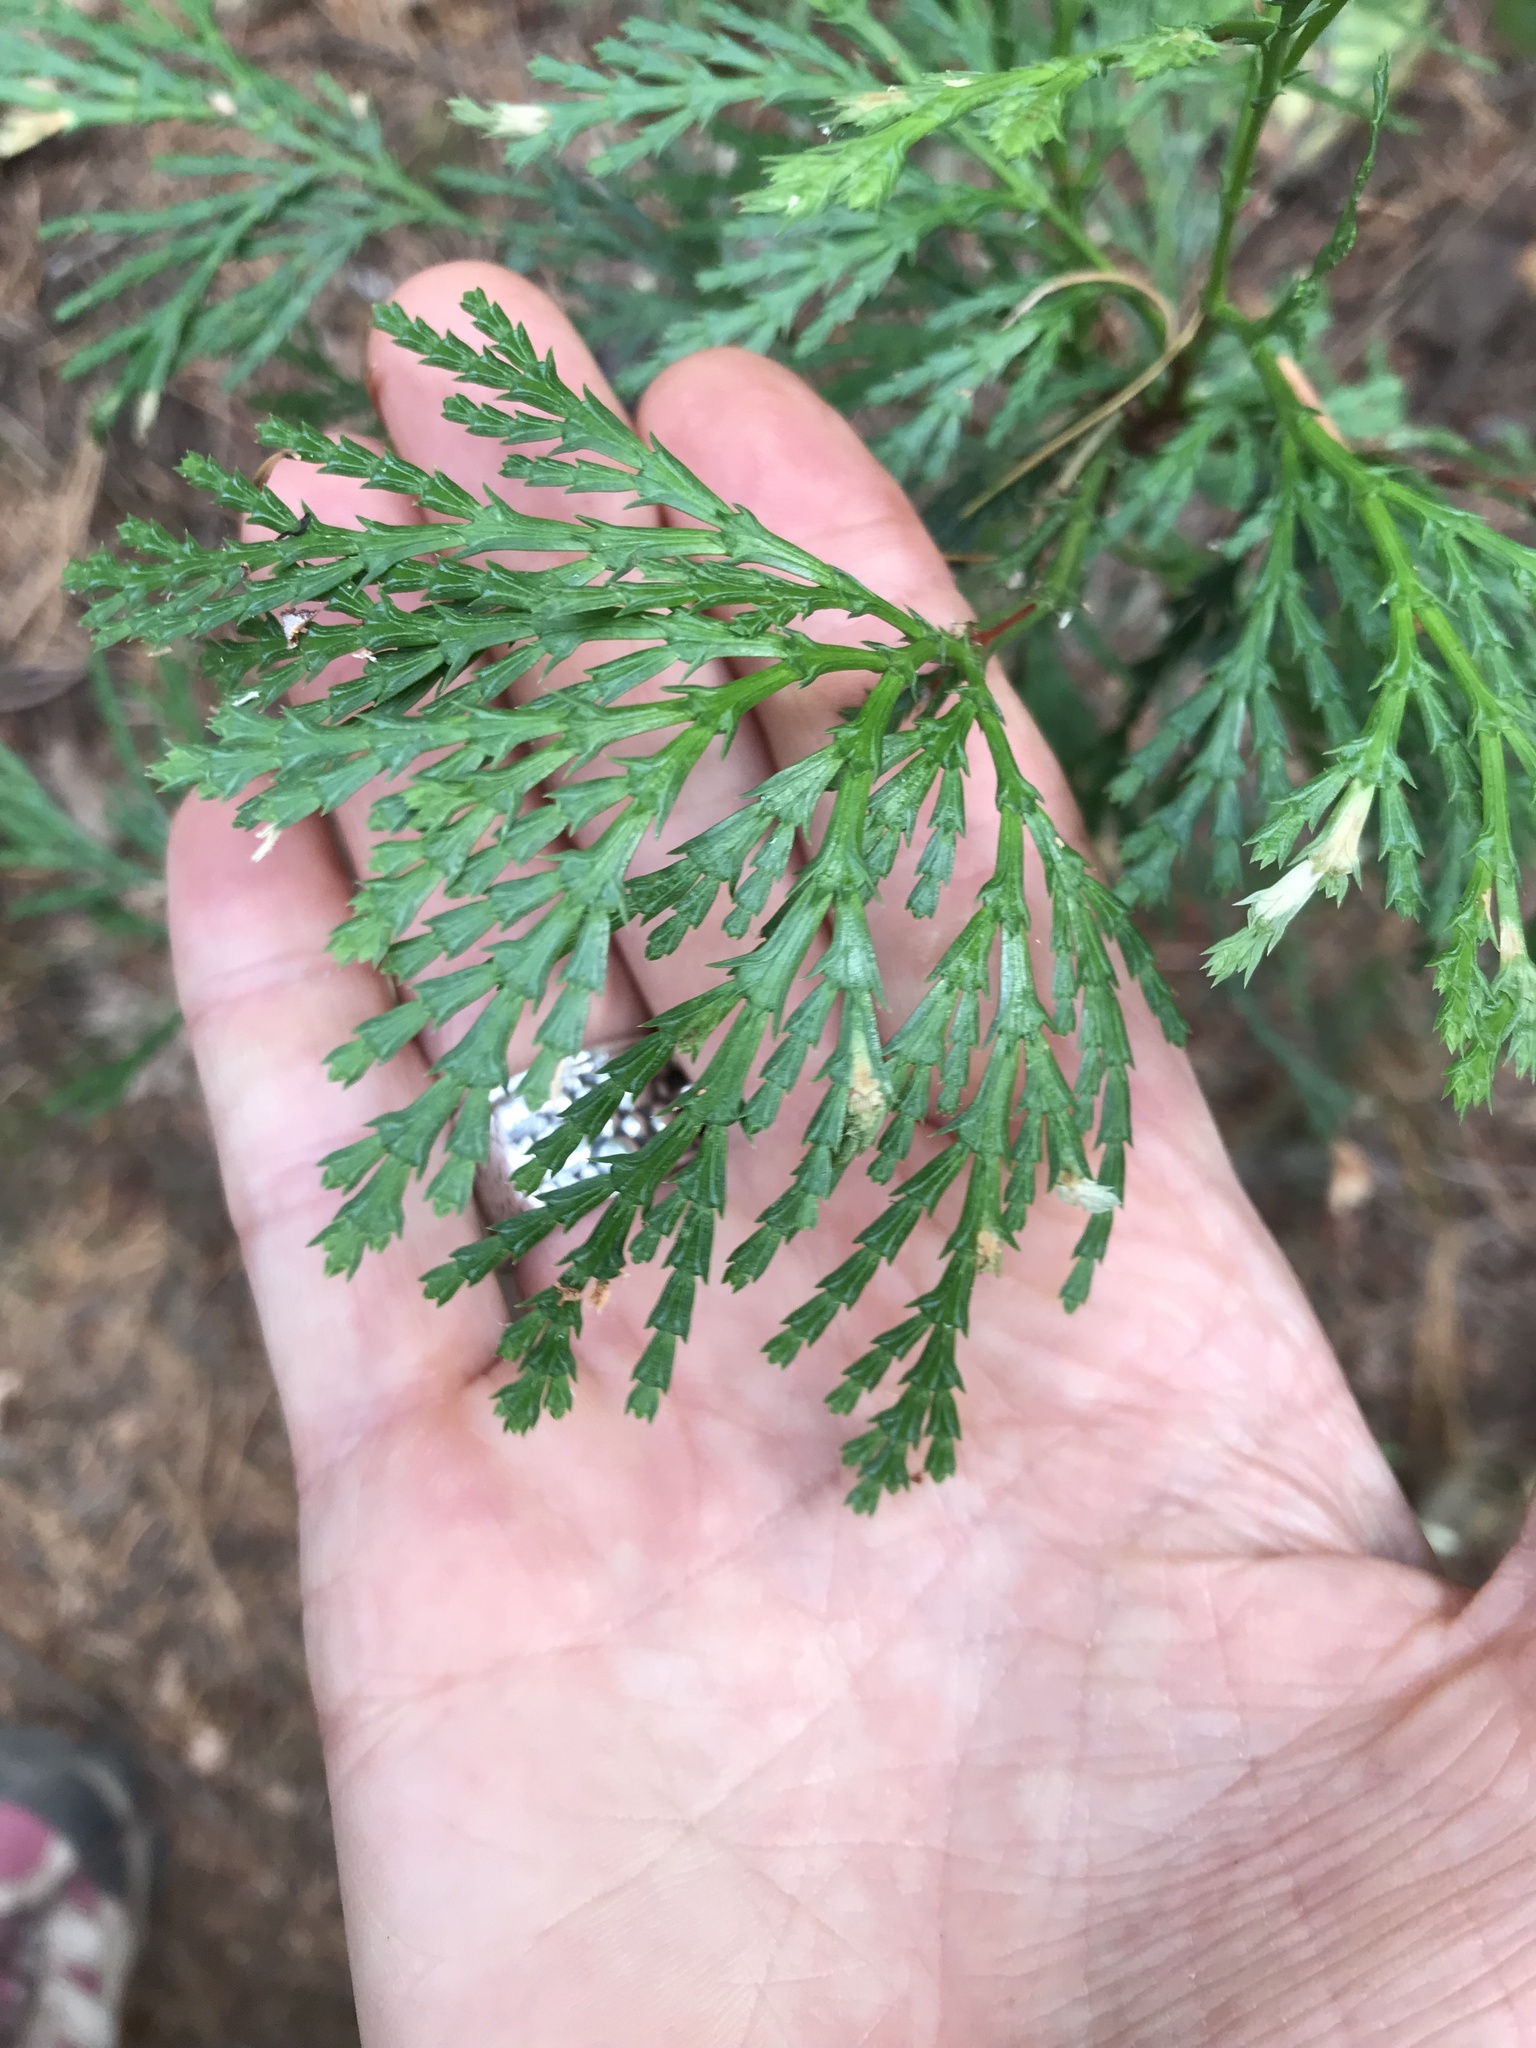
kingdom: Plantae
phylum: Tracheophyta
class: Pinopsida
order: Pinales
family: Cupressaceae
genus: Calocedrus
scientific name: Calocedrus decurrens
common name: Californian incense-cedar
